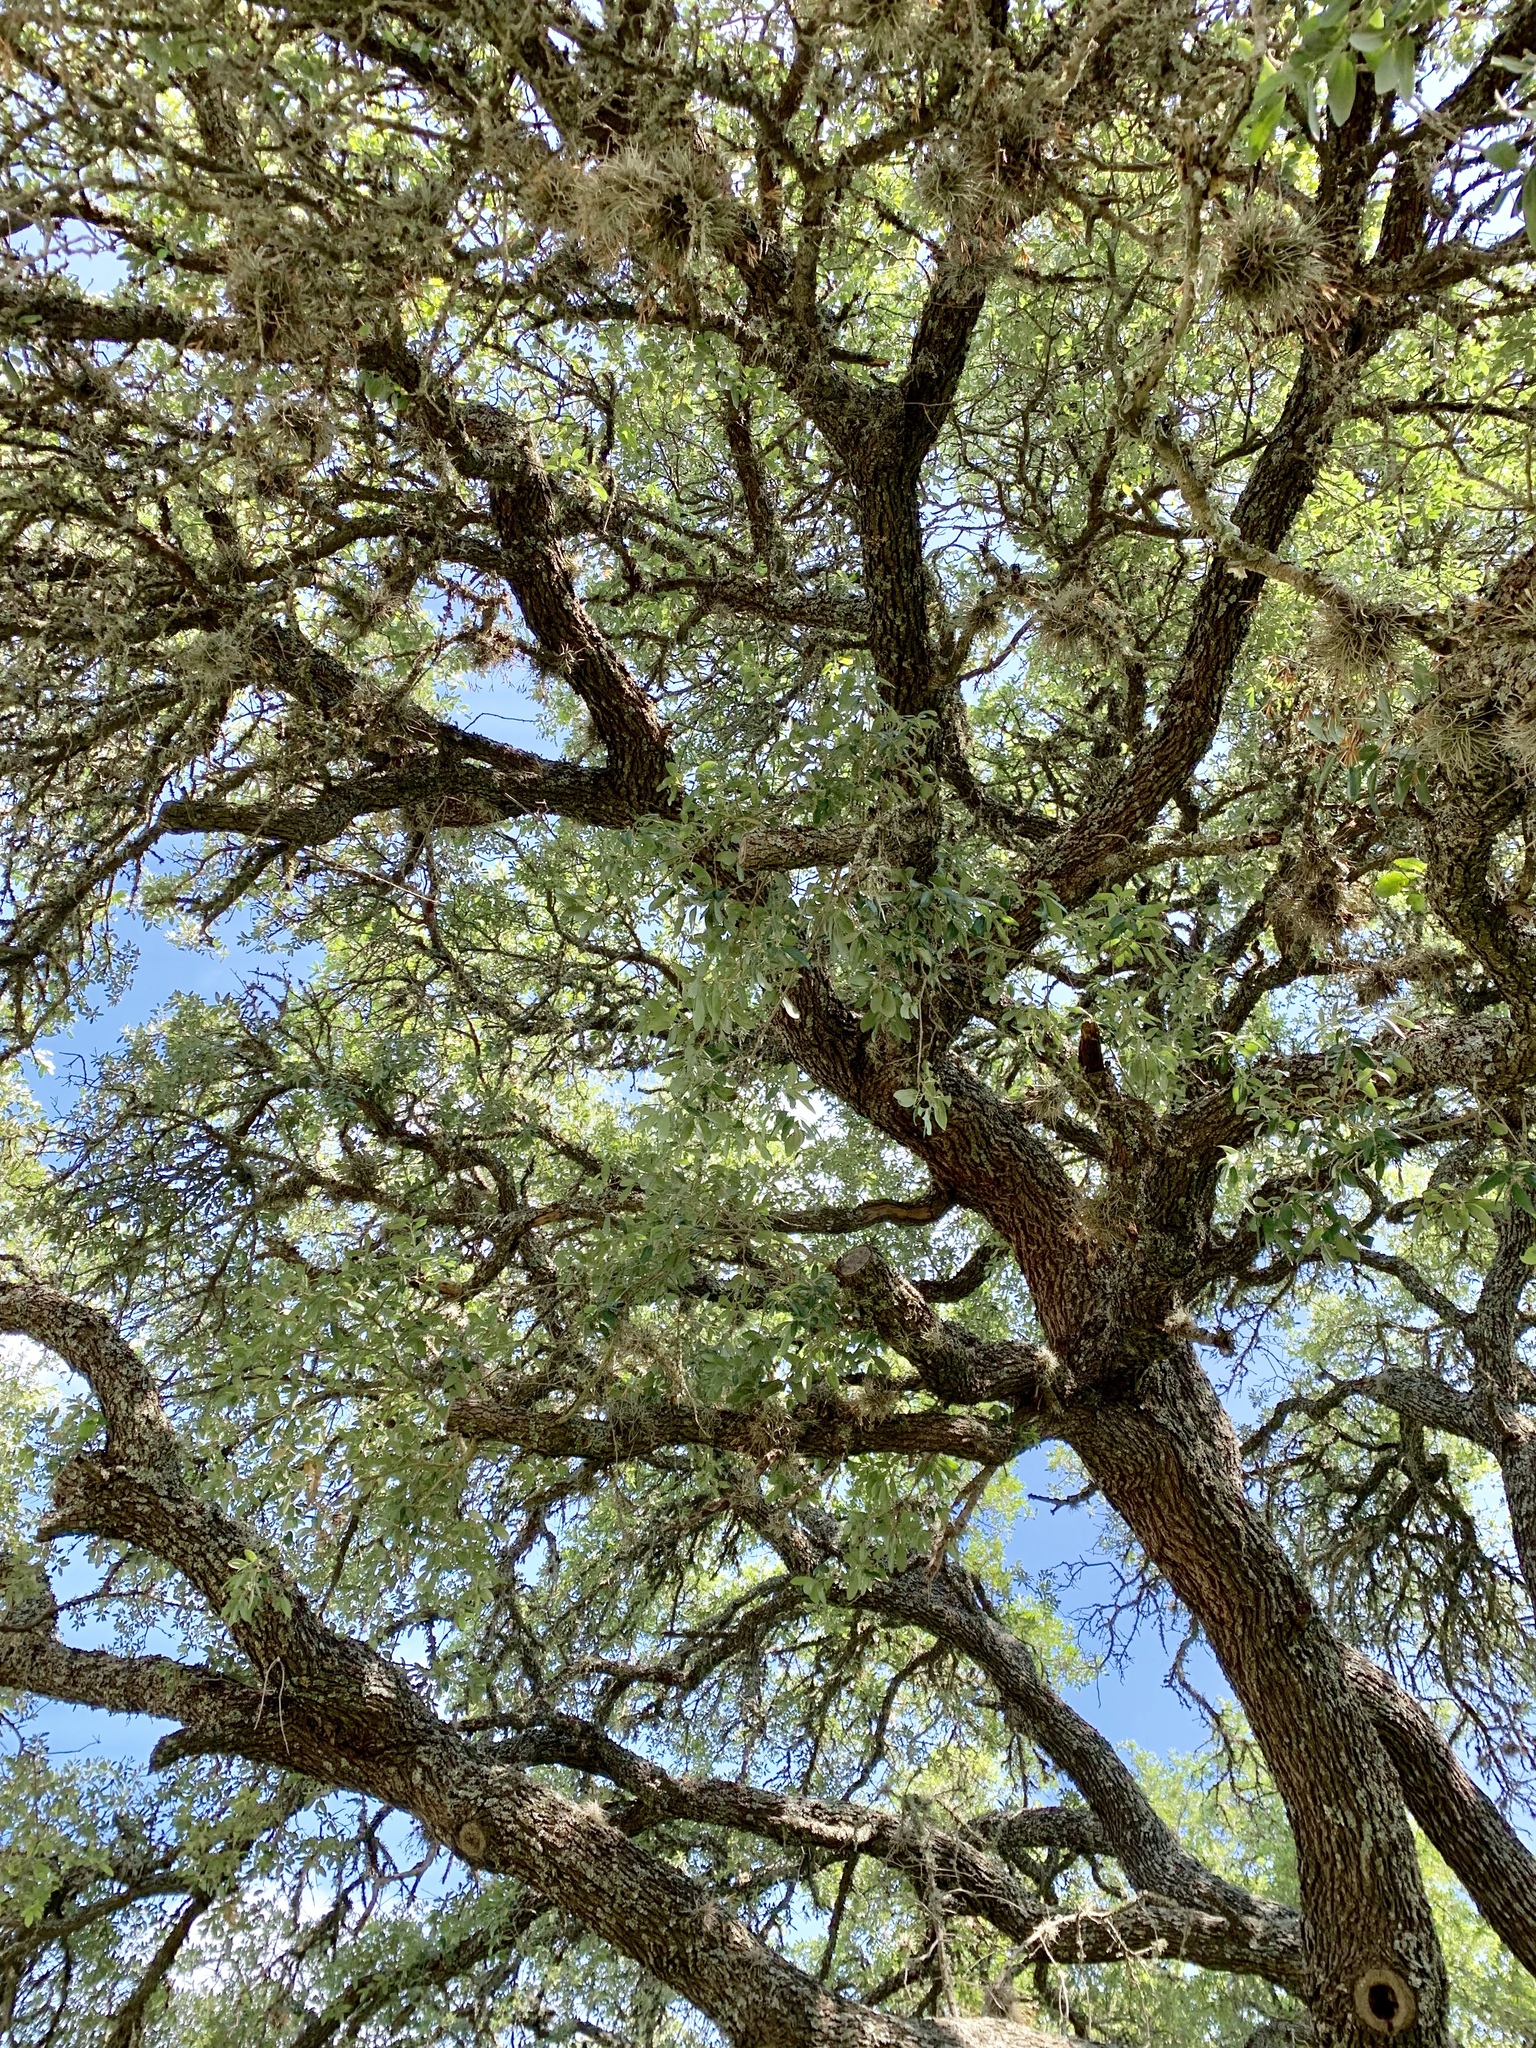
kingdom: Plantae
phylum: Tracheophyta
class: Magnoliopsida
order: Fagales
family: Fagaceae
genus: Quercus
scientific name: Quercus fusiformis
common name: Texas live oak
